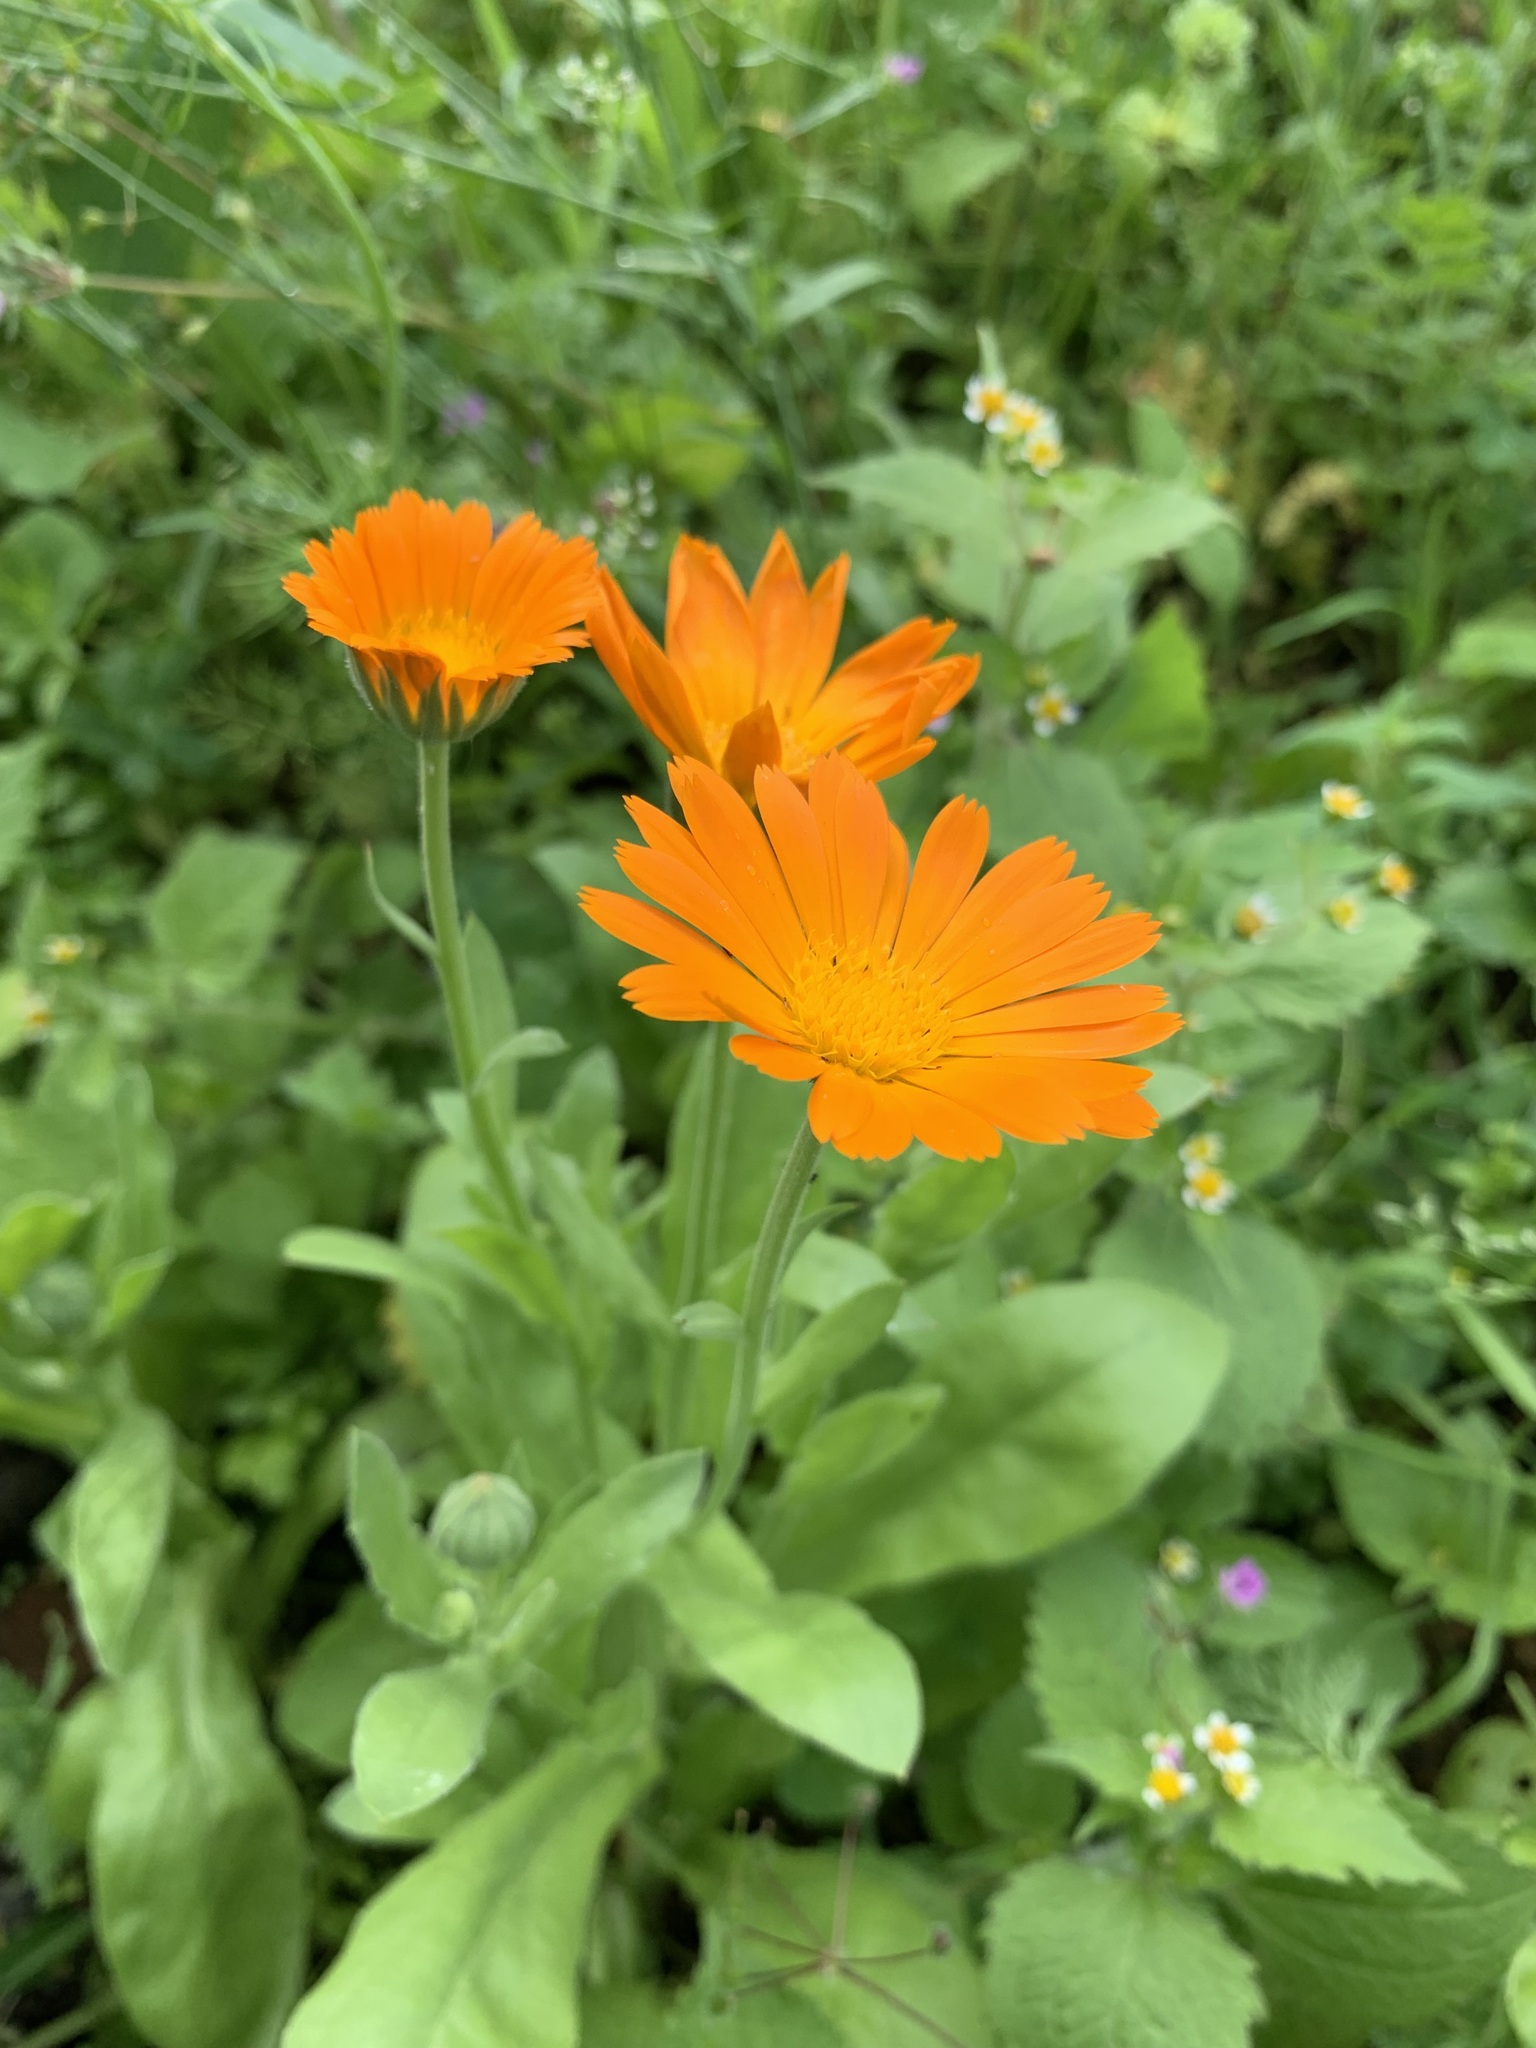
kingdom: Plantae
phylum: Tracheophyta
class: Magnoliopsida
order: Asterales
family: Asteraceae
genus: Calendula
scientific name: Calendula officinalis
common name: Pot marigold
